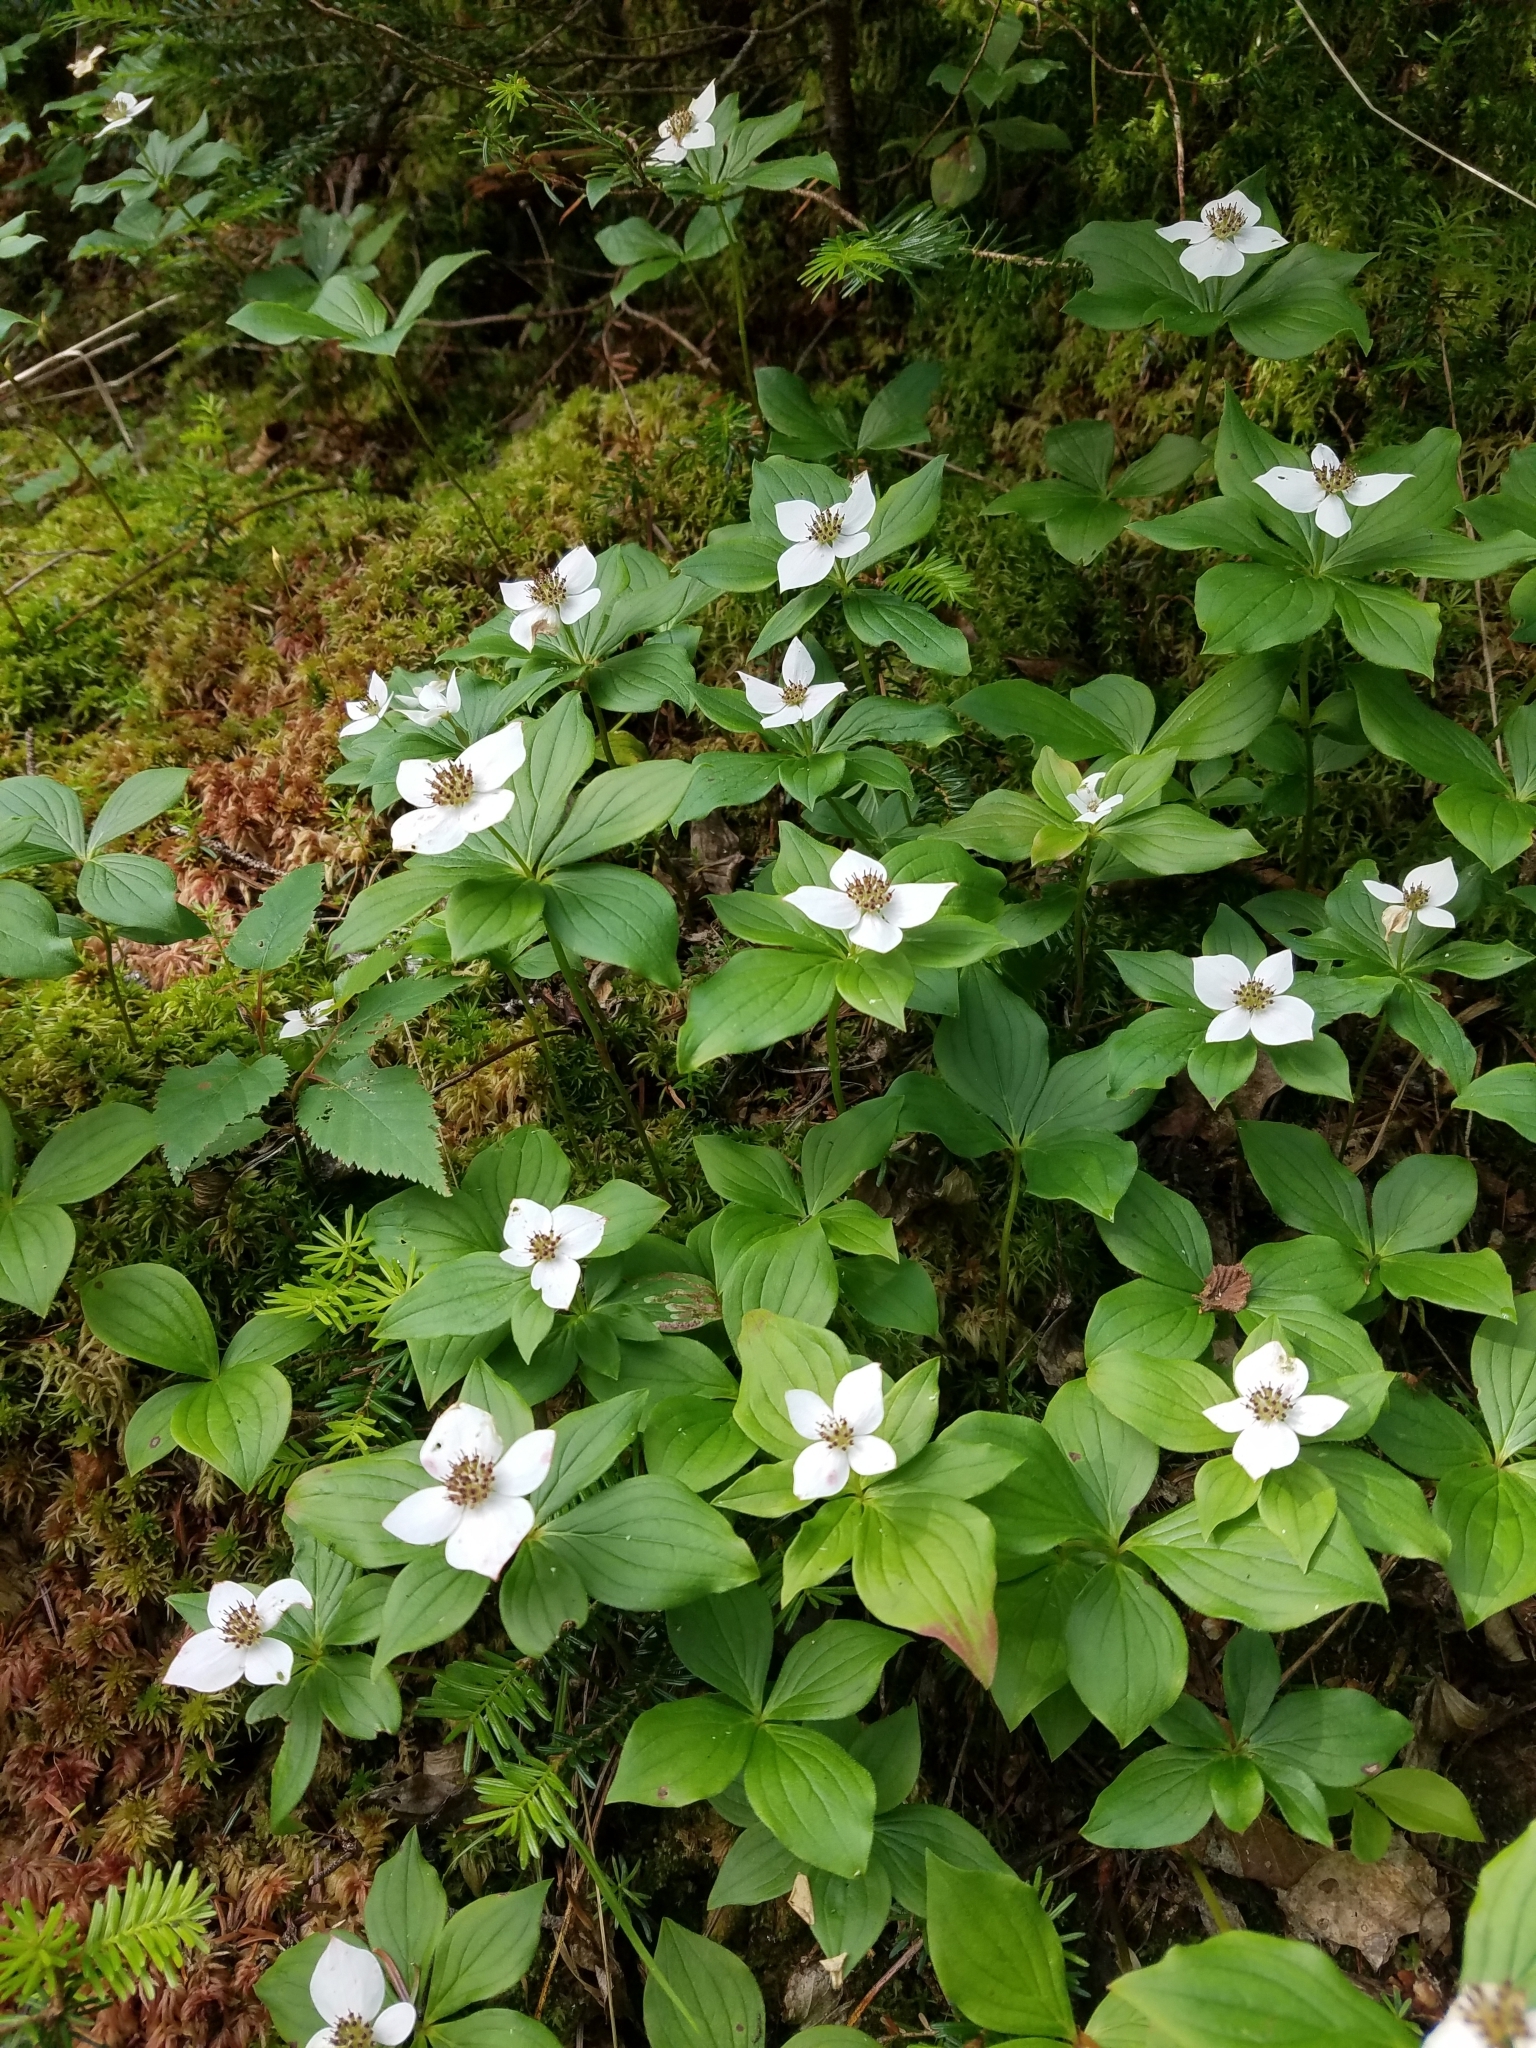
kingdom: Plantae
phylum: Tracheophyta
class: Magnoliopsida
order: Cornales
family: Cornaceae
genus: Cornus
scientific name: Cornus canadensis
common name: Creeping dogwood
